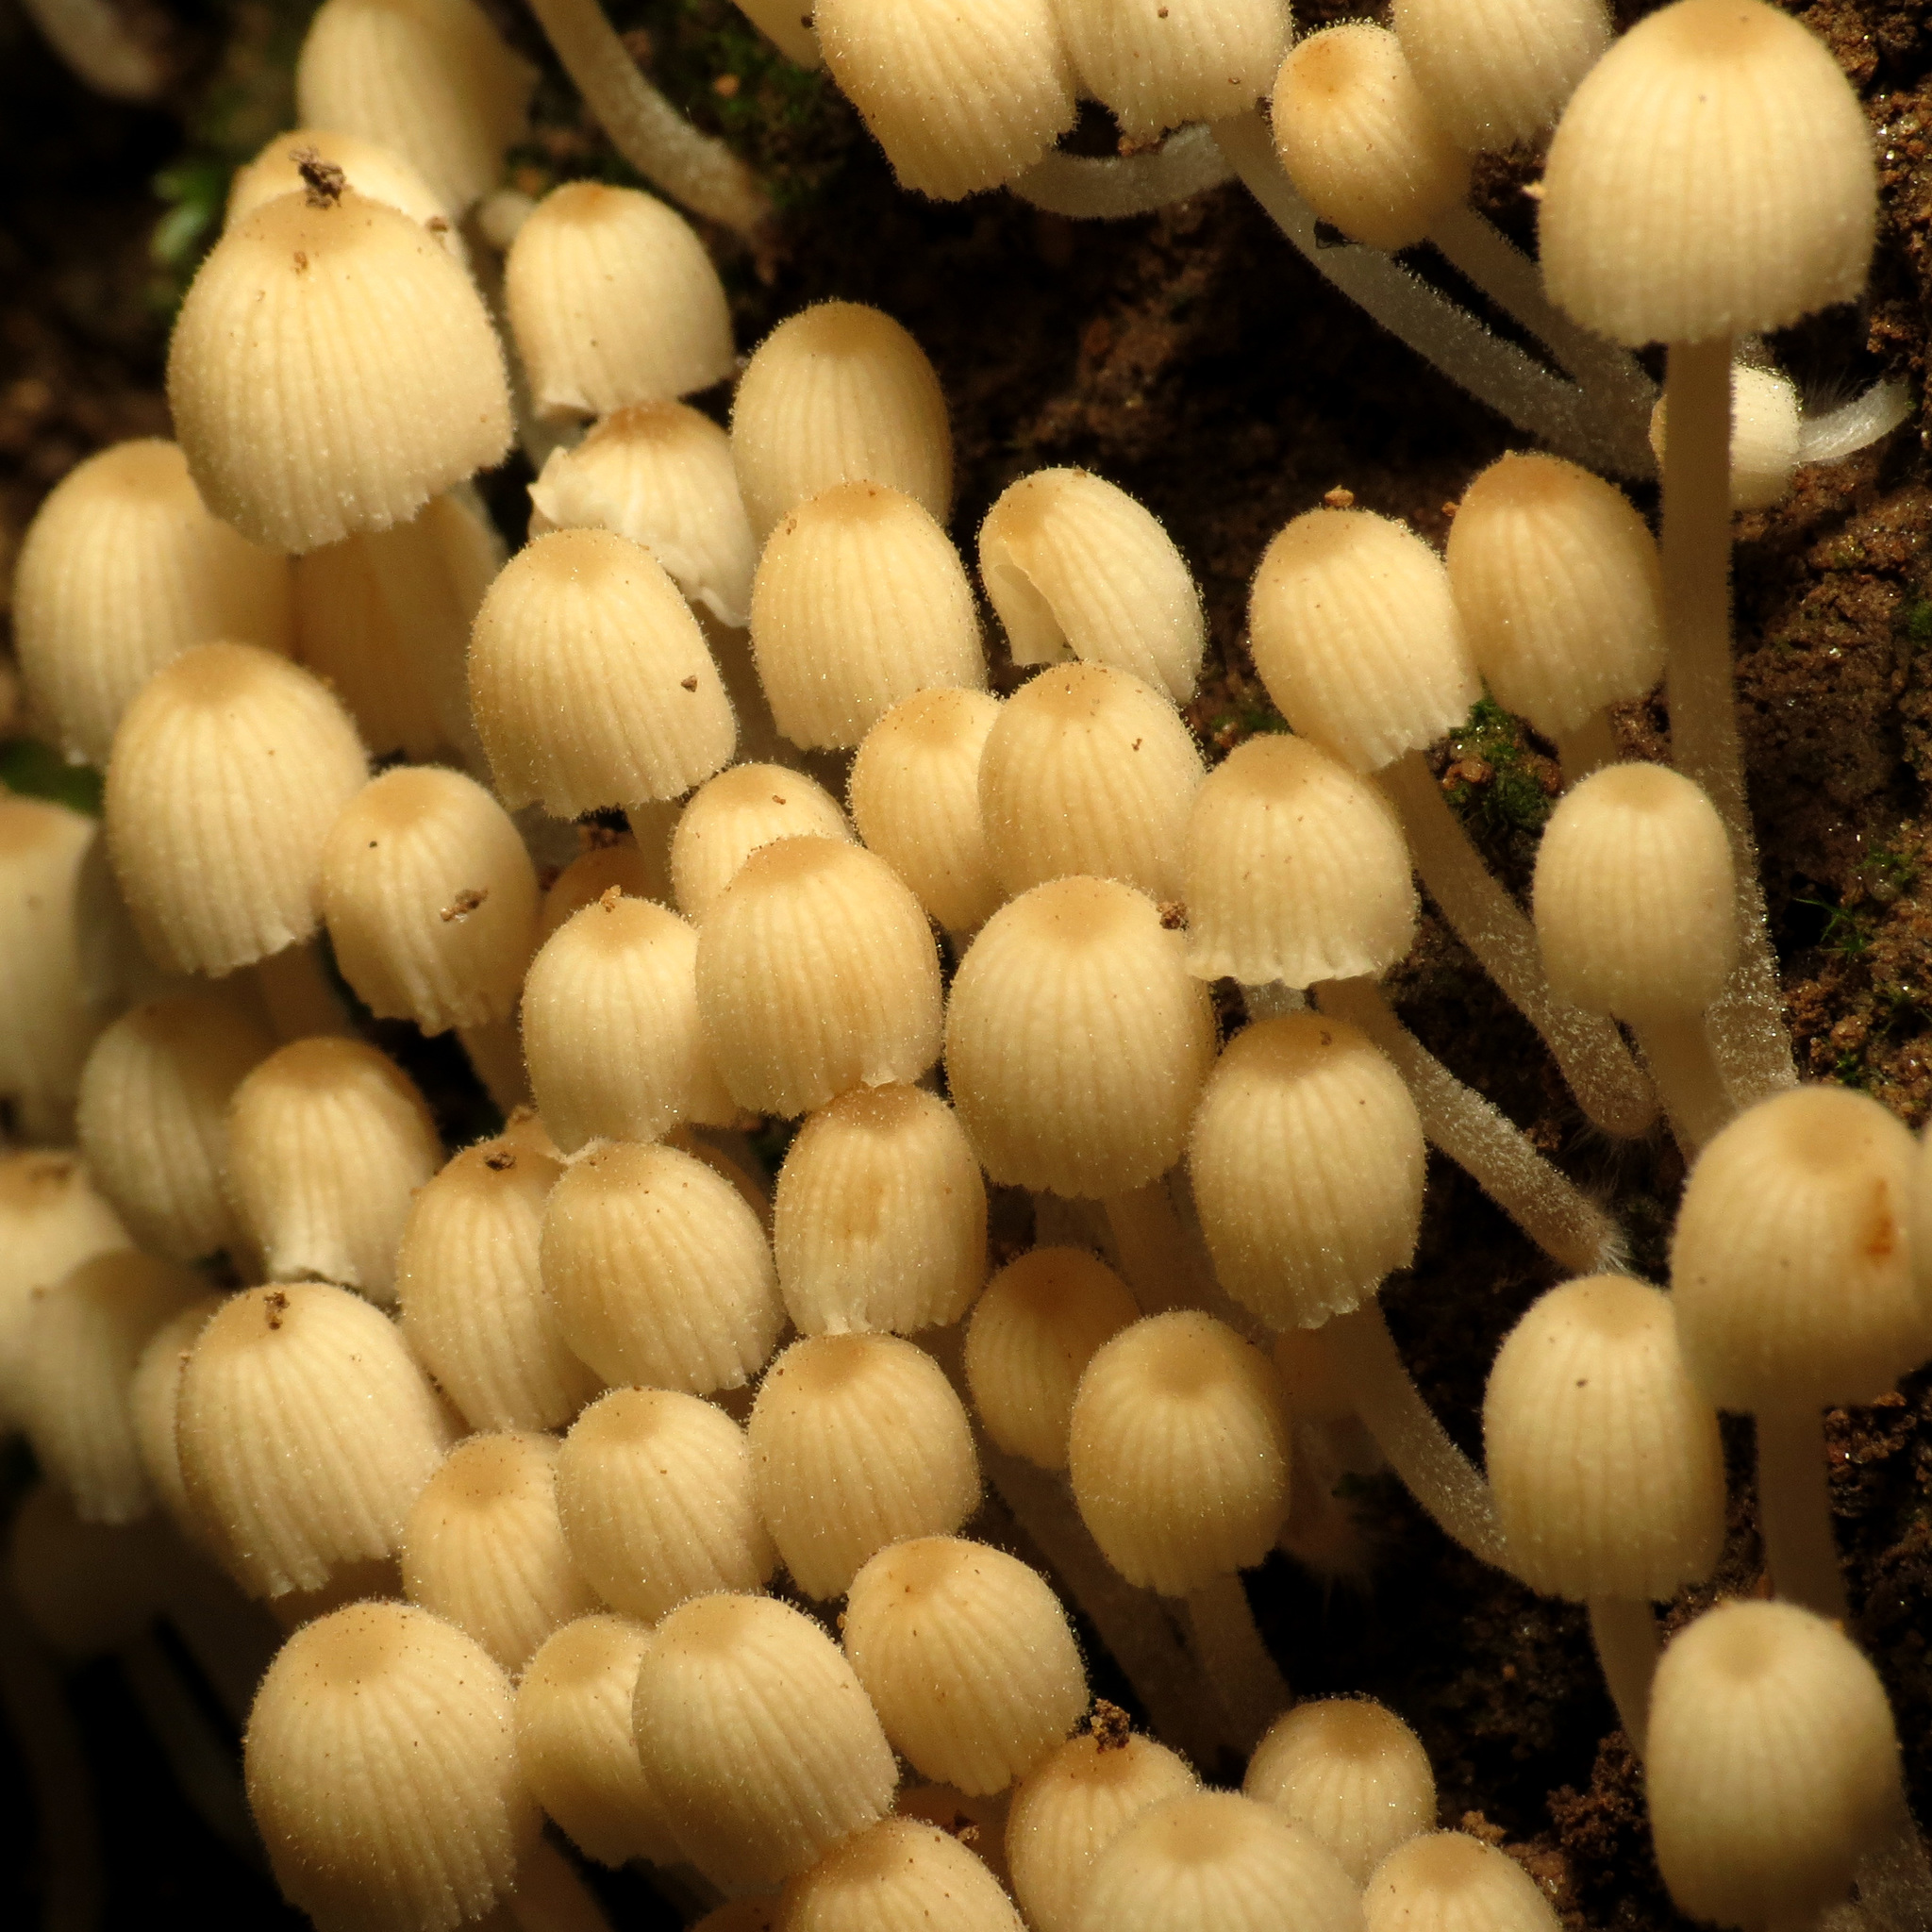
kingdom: Fungi
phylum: Basidiomycota
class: Agaricomycetes
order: Agaricales
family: Psathyrellaceae
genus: Coprinellus
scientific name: Coprinellus disseminatus
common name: Fairies' bonnets
